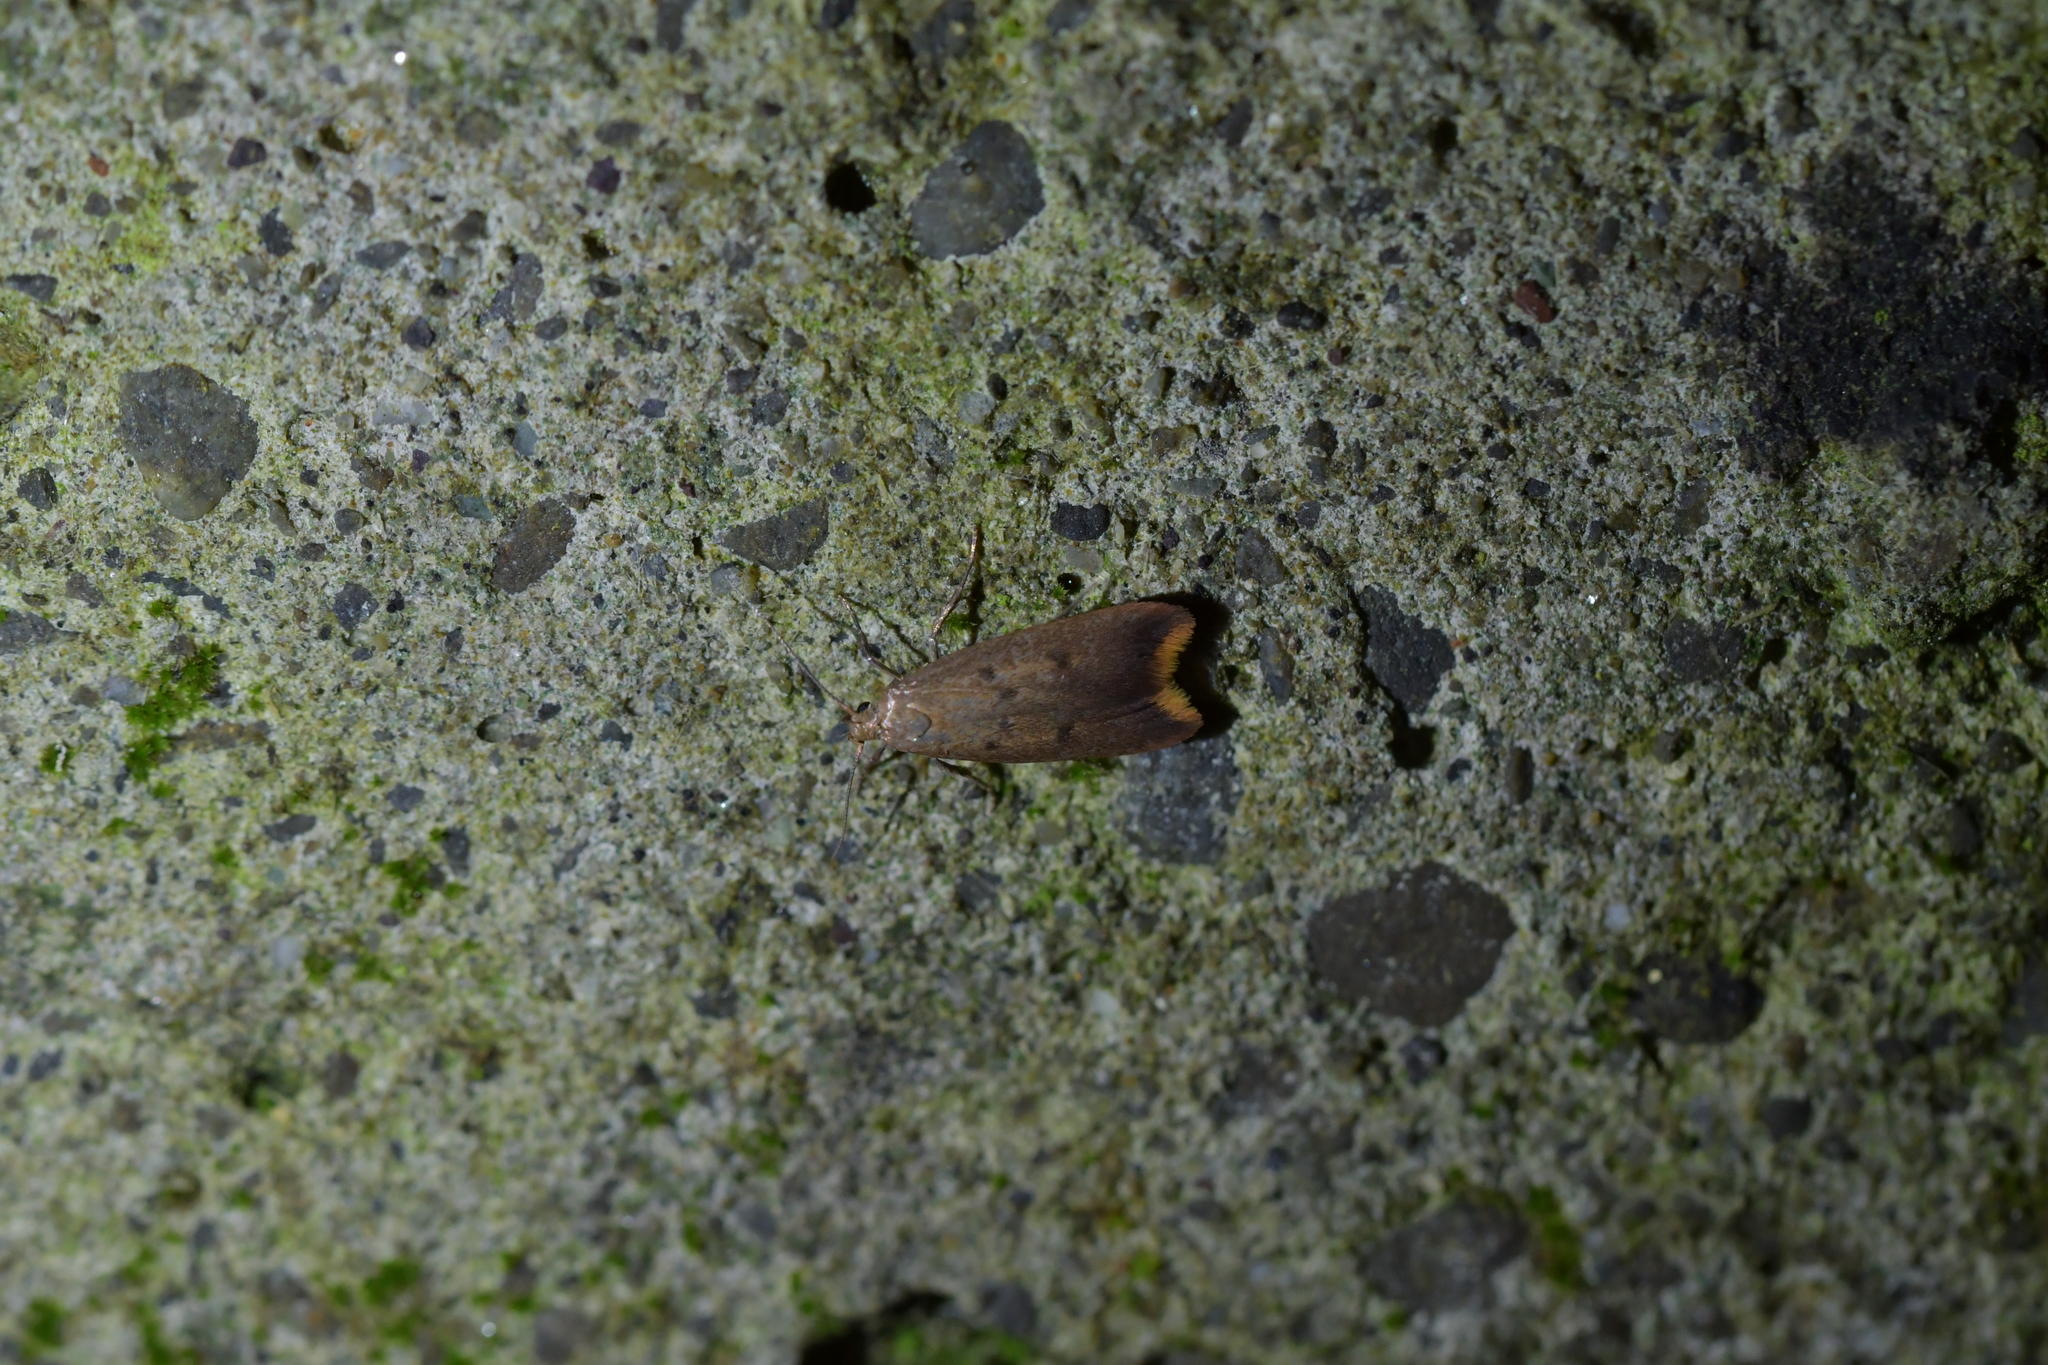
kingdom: Animalia
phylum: Arthropoda
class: Insecta
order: Lepidoptera
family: Oecophoridae
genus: Tachystola
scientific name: Tachystola acroxantha
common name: Ruddy streak
